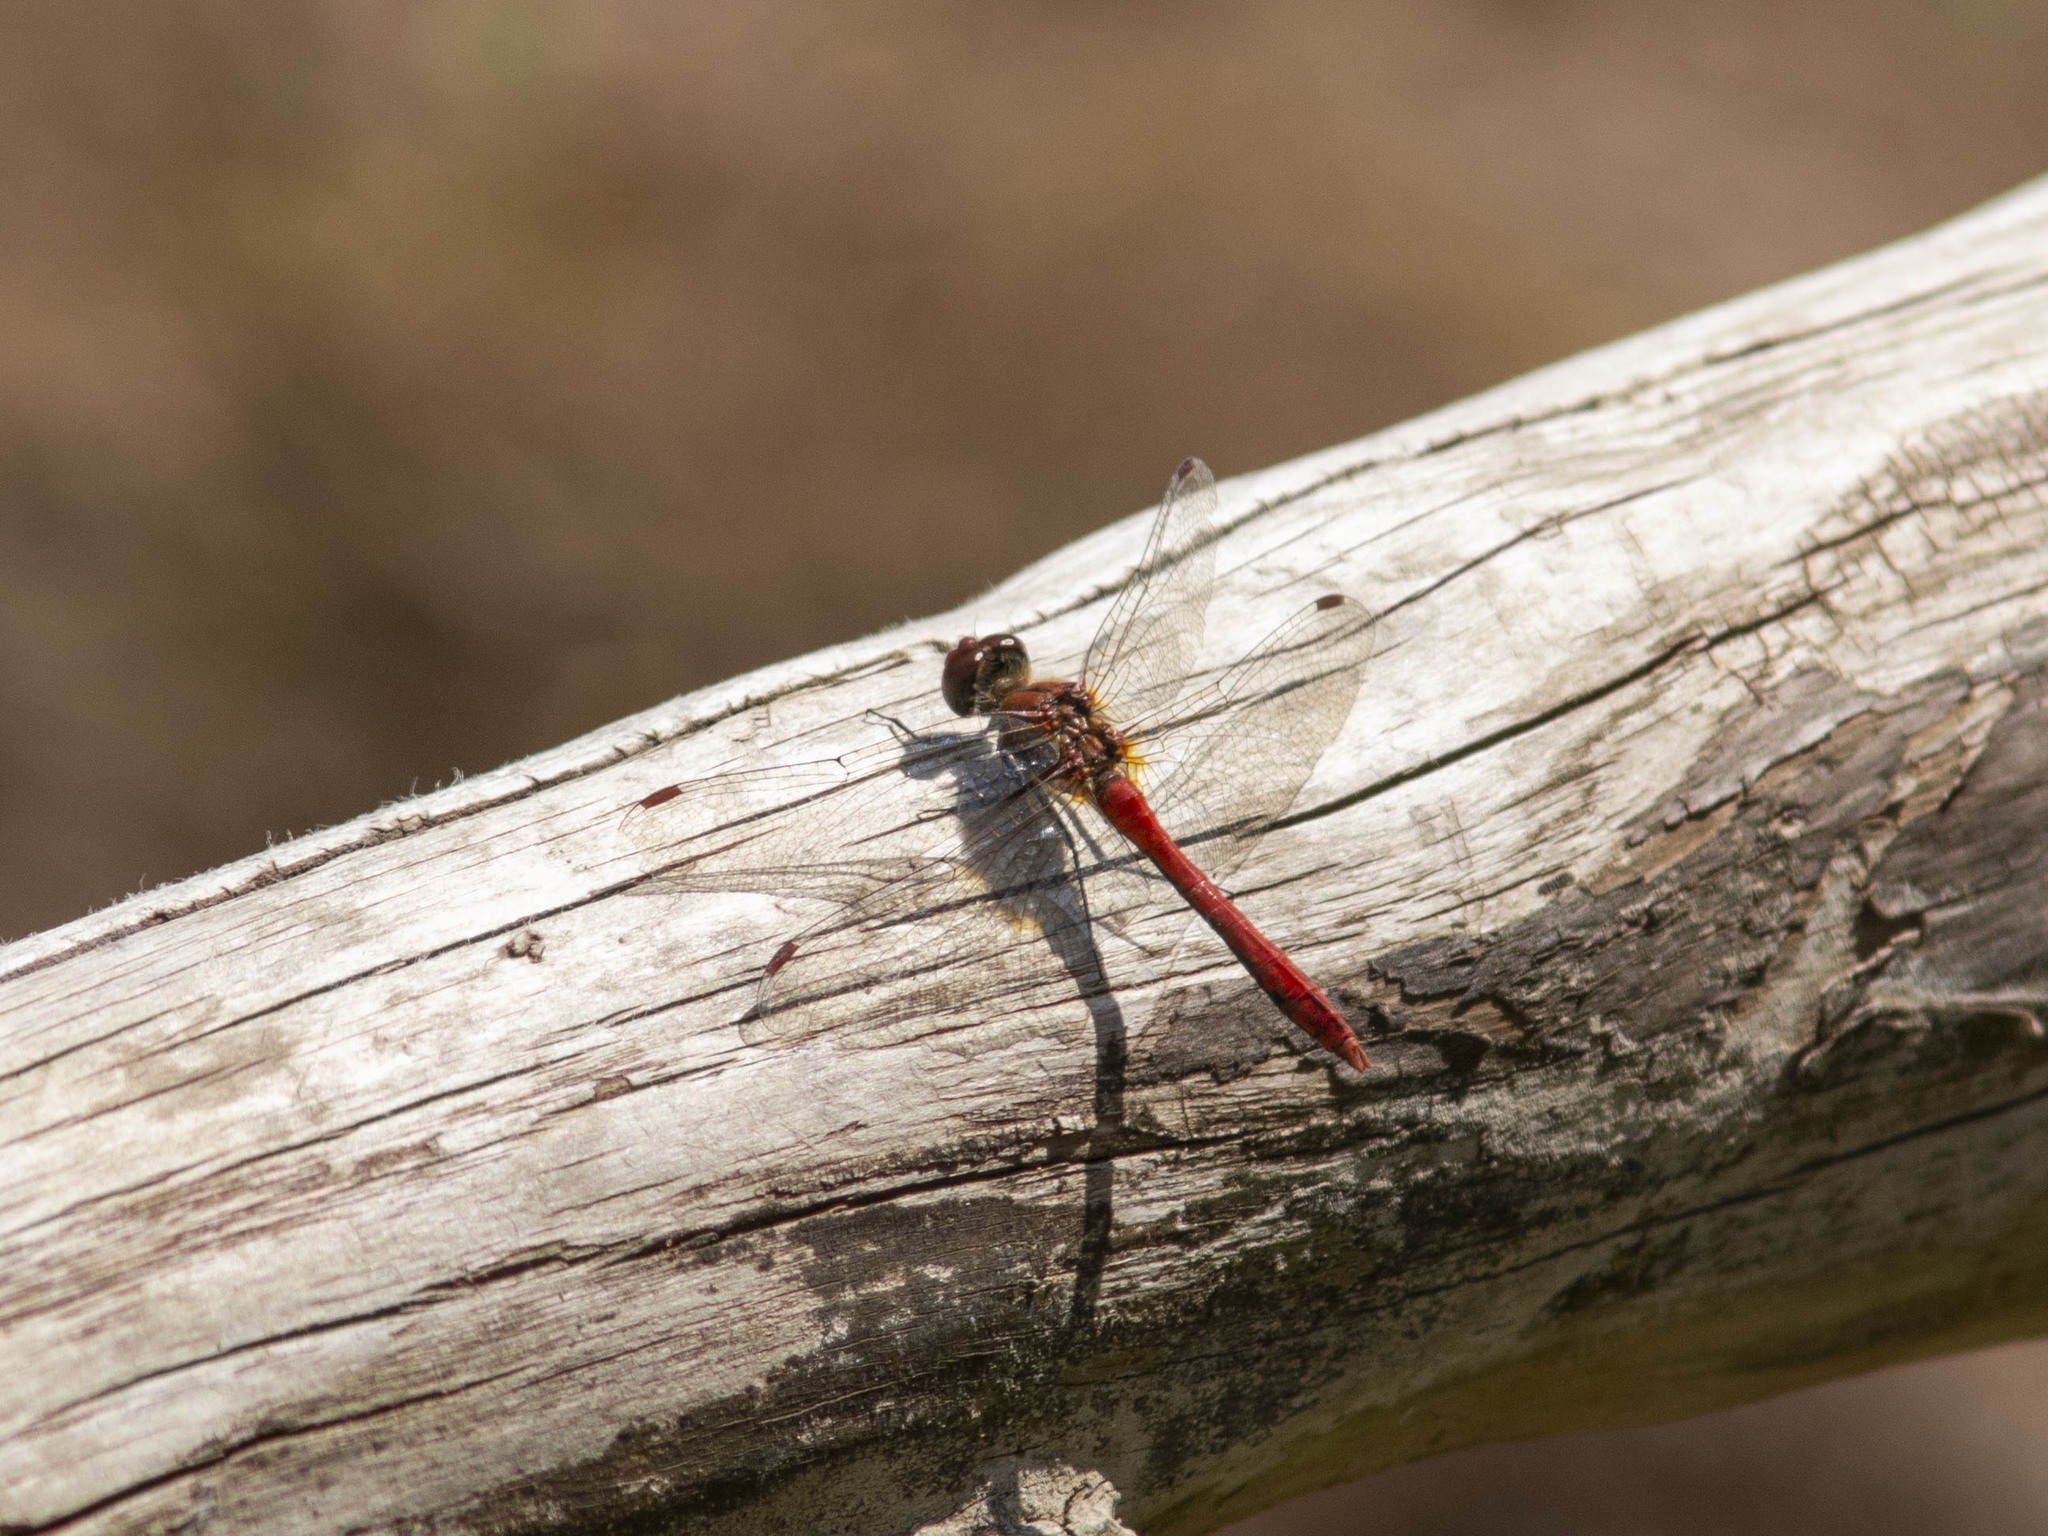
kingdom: Animalia
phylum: Arthropoda
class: Insecta
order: Odonata
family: Libellulidae
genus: Sympetrum
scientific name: Sympetrum sanguineum
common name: Ruddy darter
